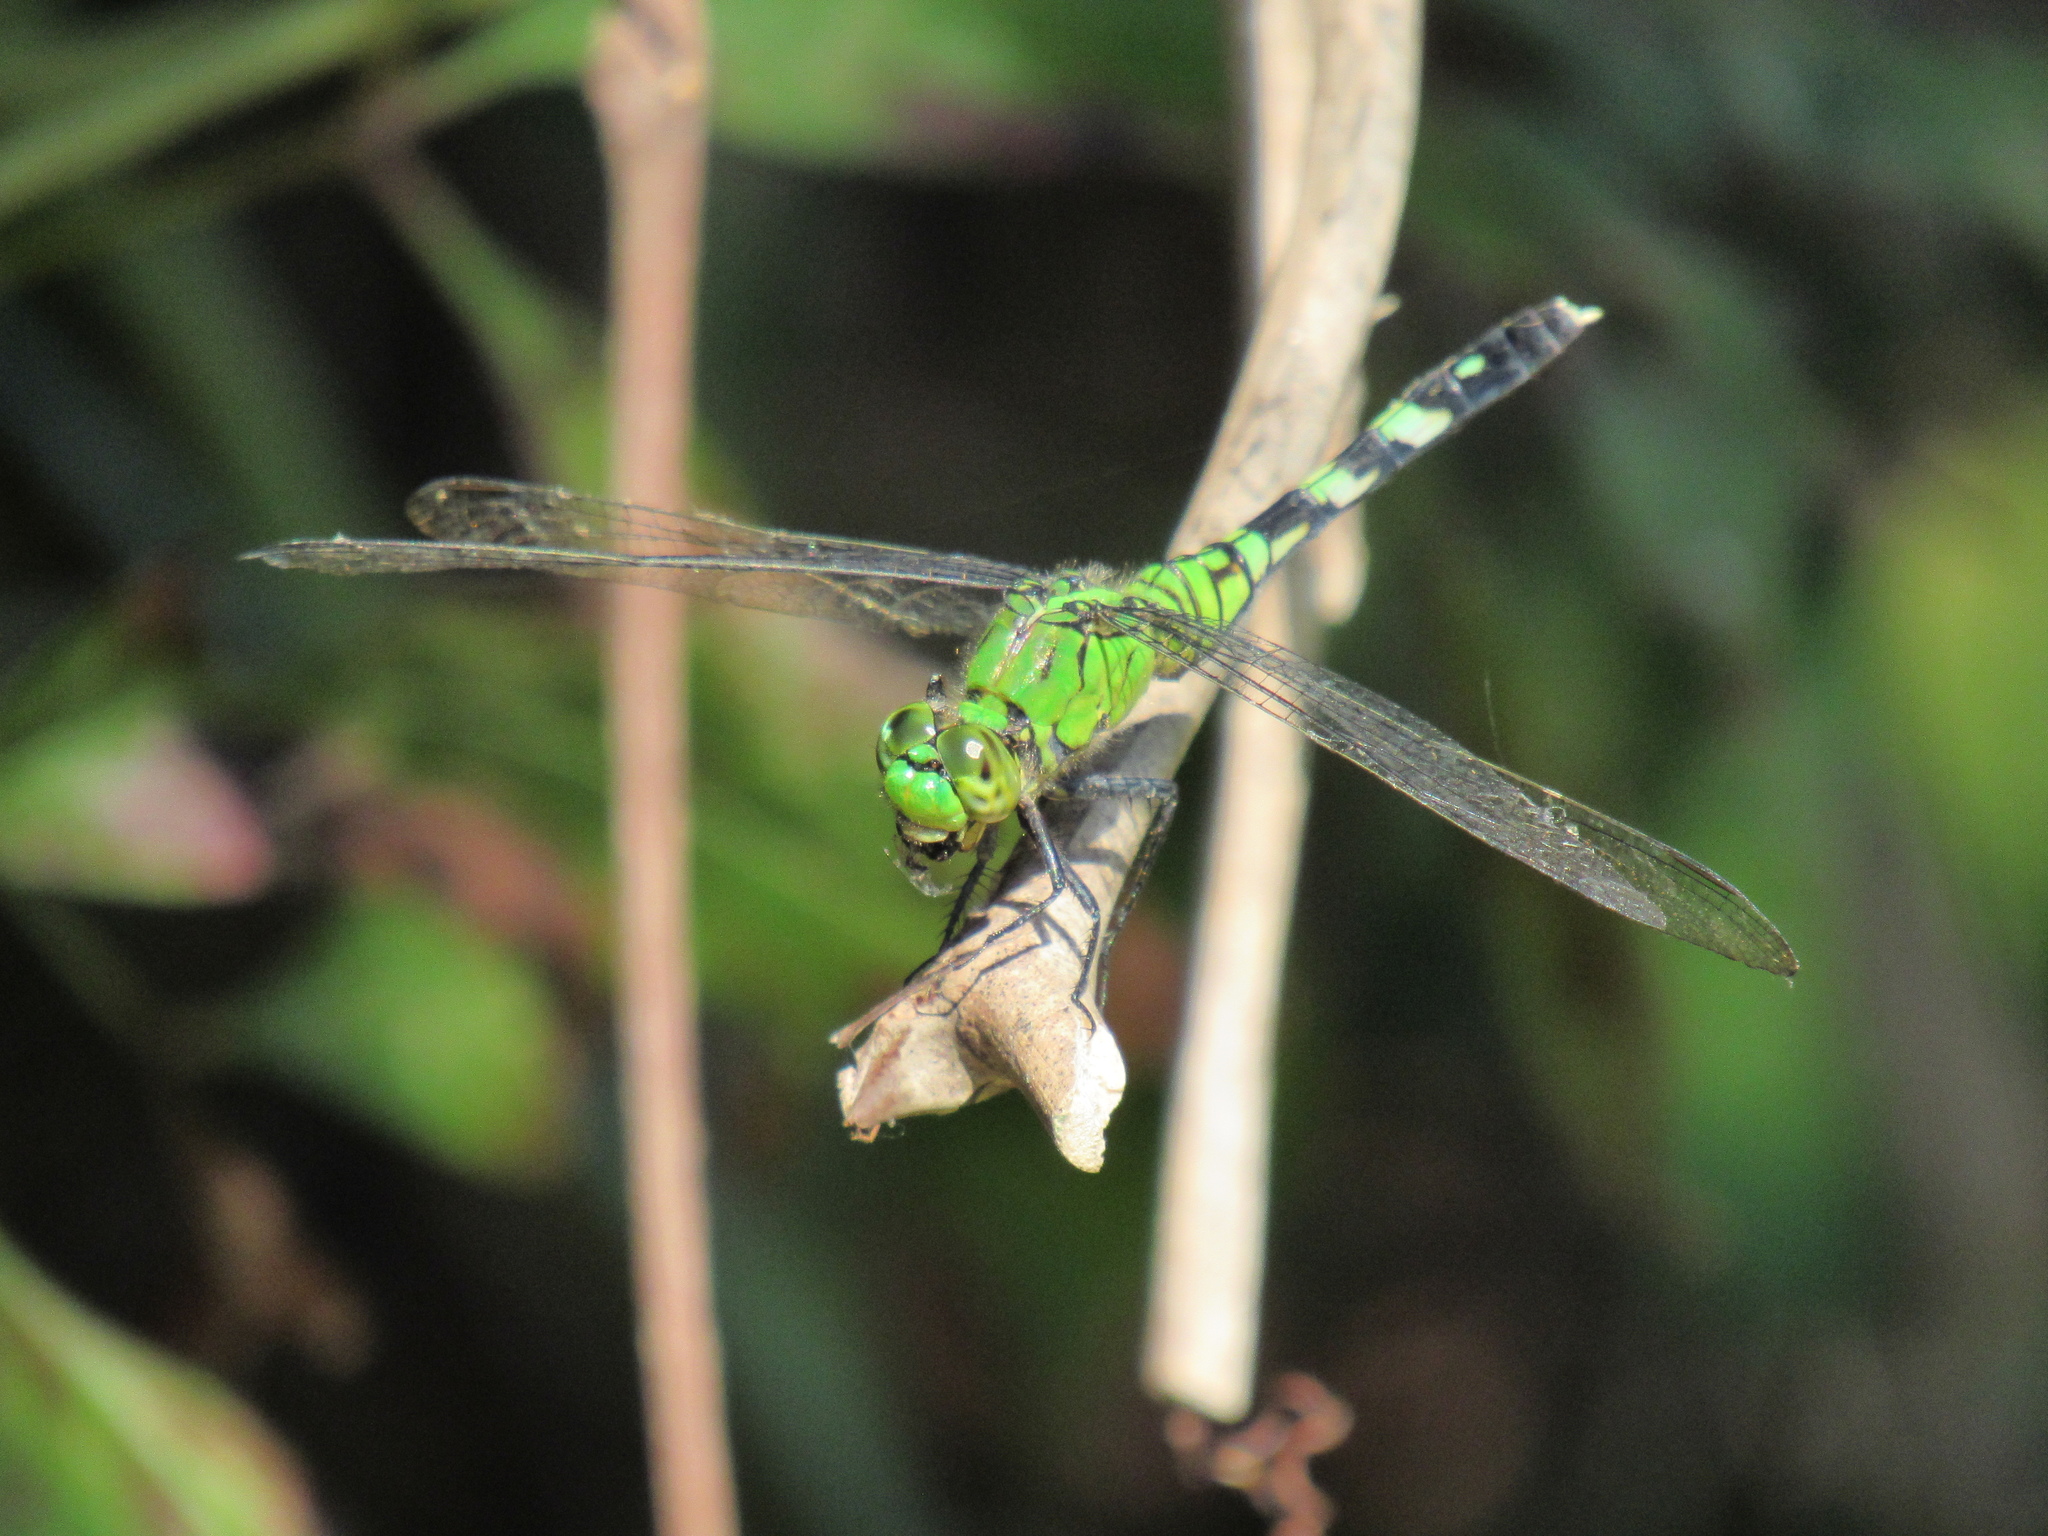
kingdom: Animalia
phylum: Arthropoda
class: Insecta
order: Odonata
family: Libellulidae
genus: Erythemis
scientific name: Erythemis simplicicollis
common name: Eastern pondhawk
